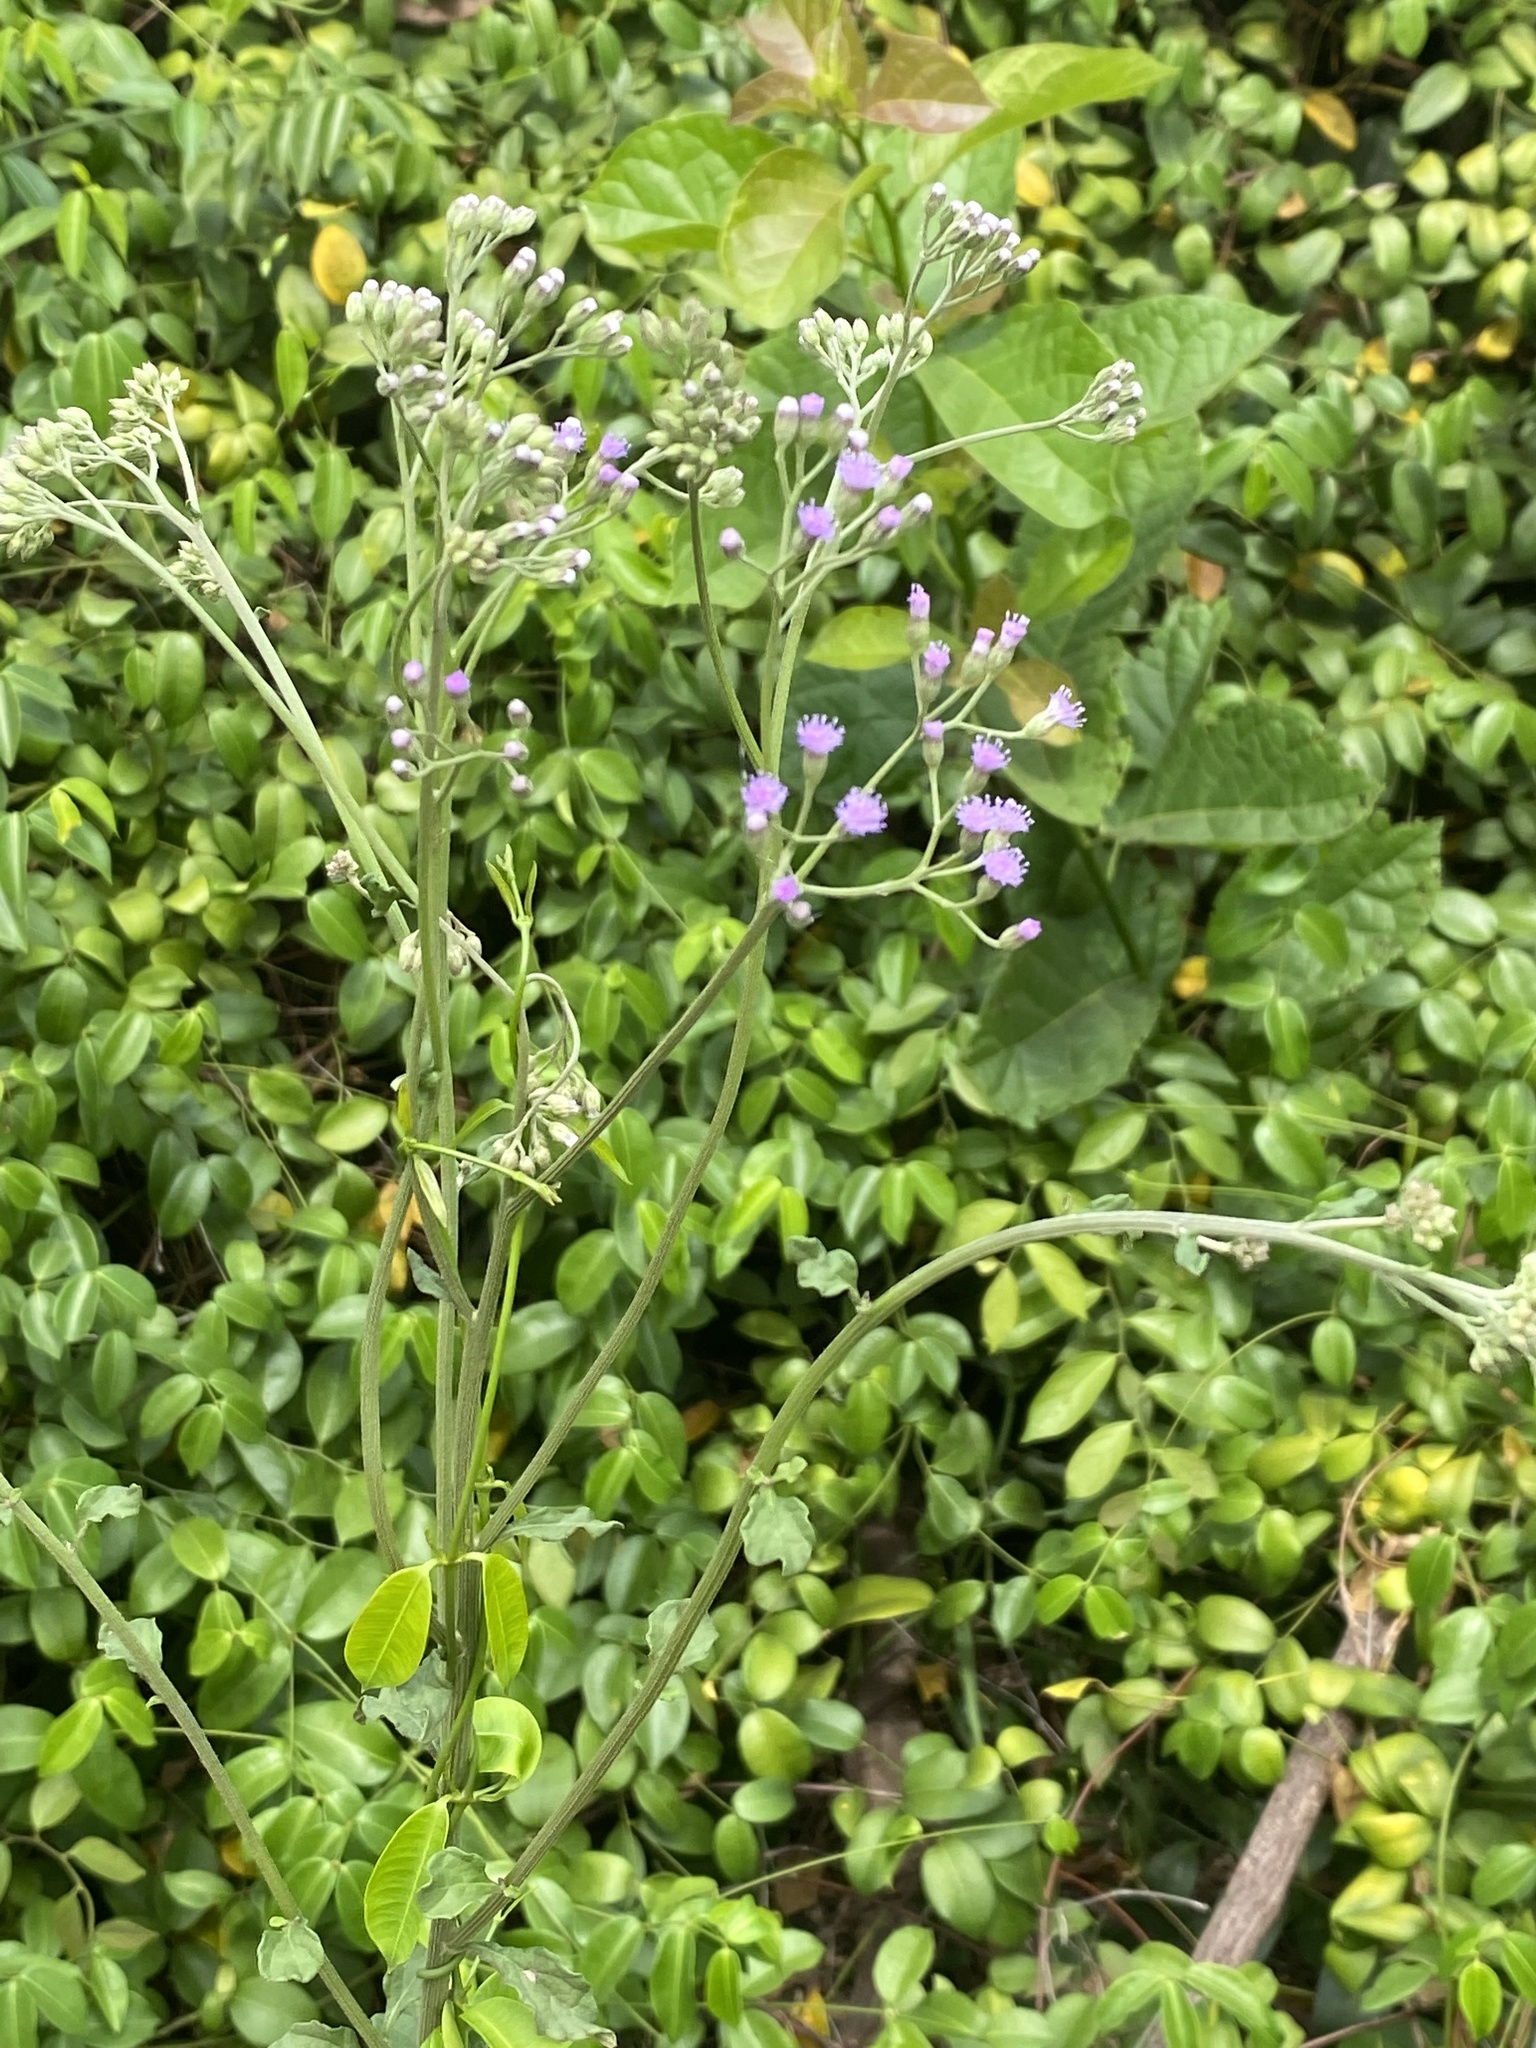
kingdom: Plantae
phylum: Tracheophyta
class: Magnoliopsida
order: Asterales
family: Asteraceae
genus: Cyanthillium
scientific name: Cyanthillium cinereum
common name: Little ironweed
